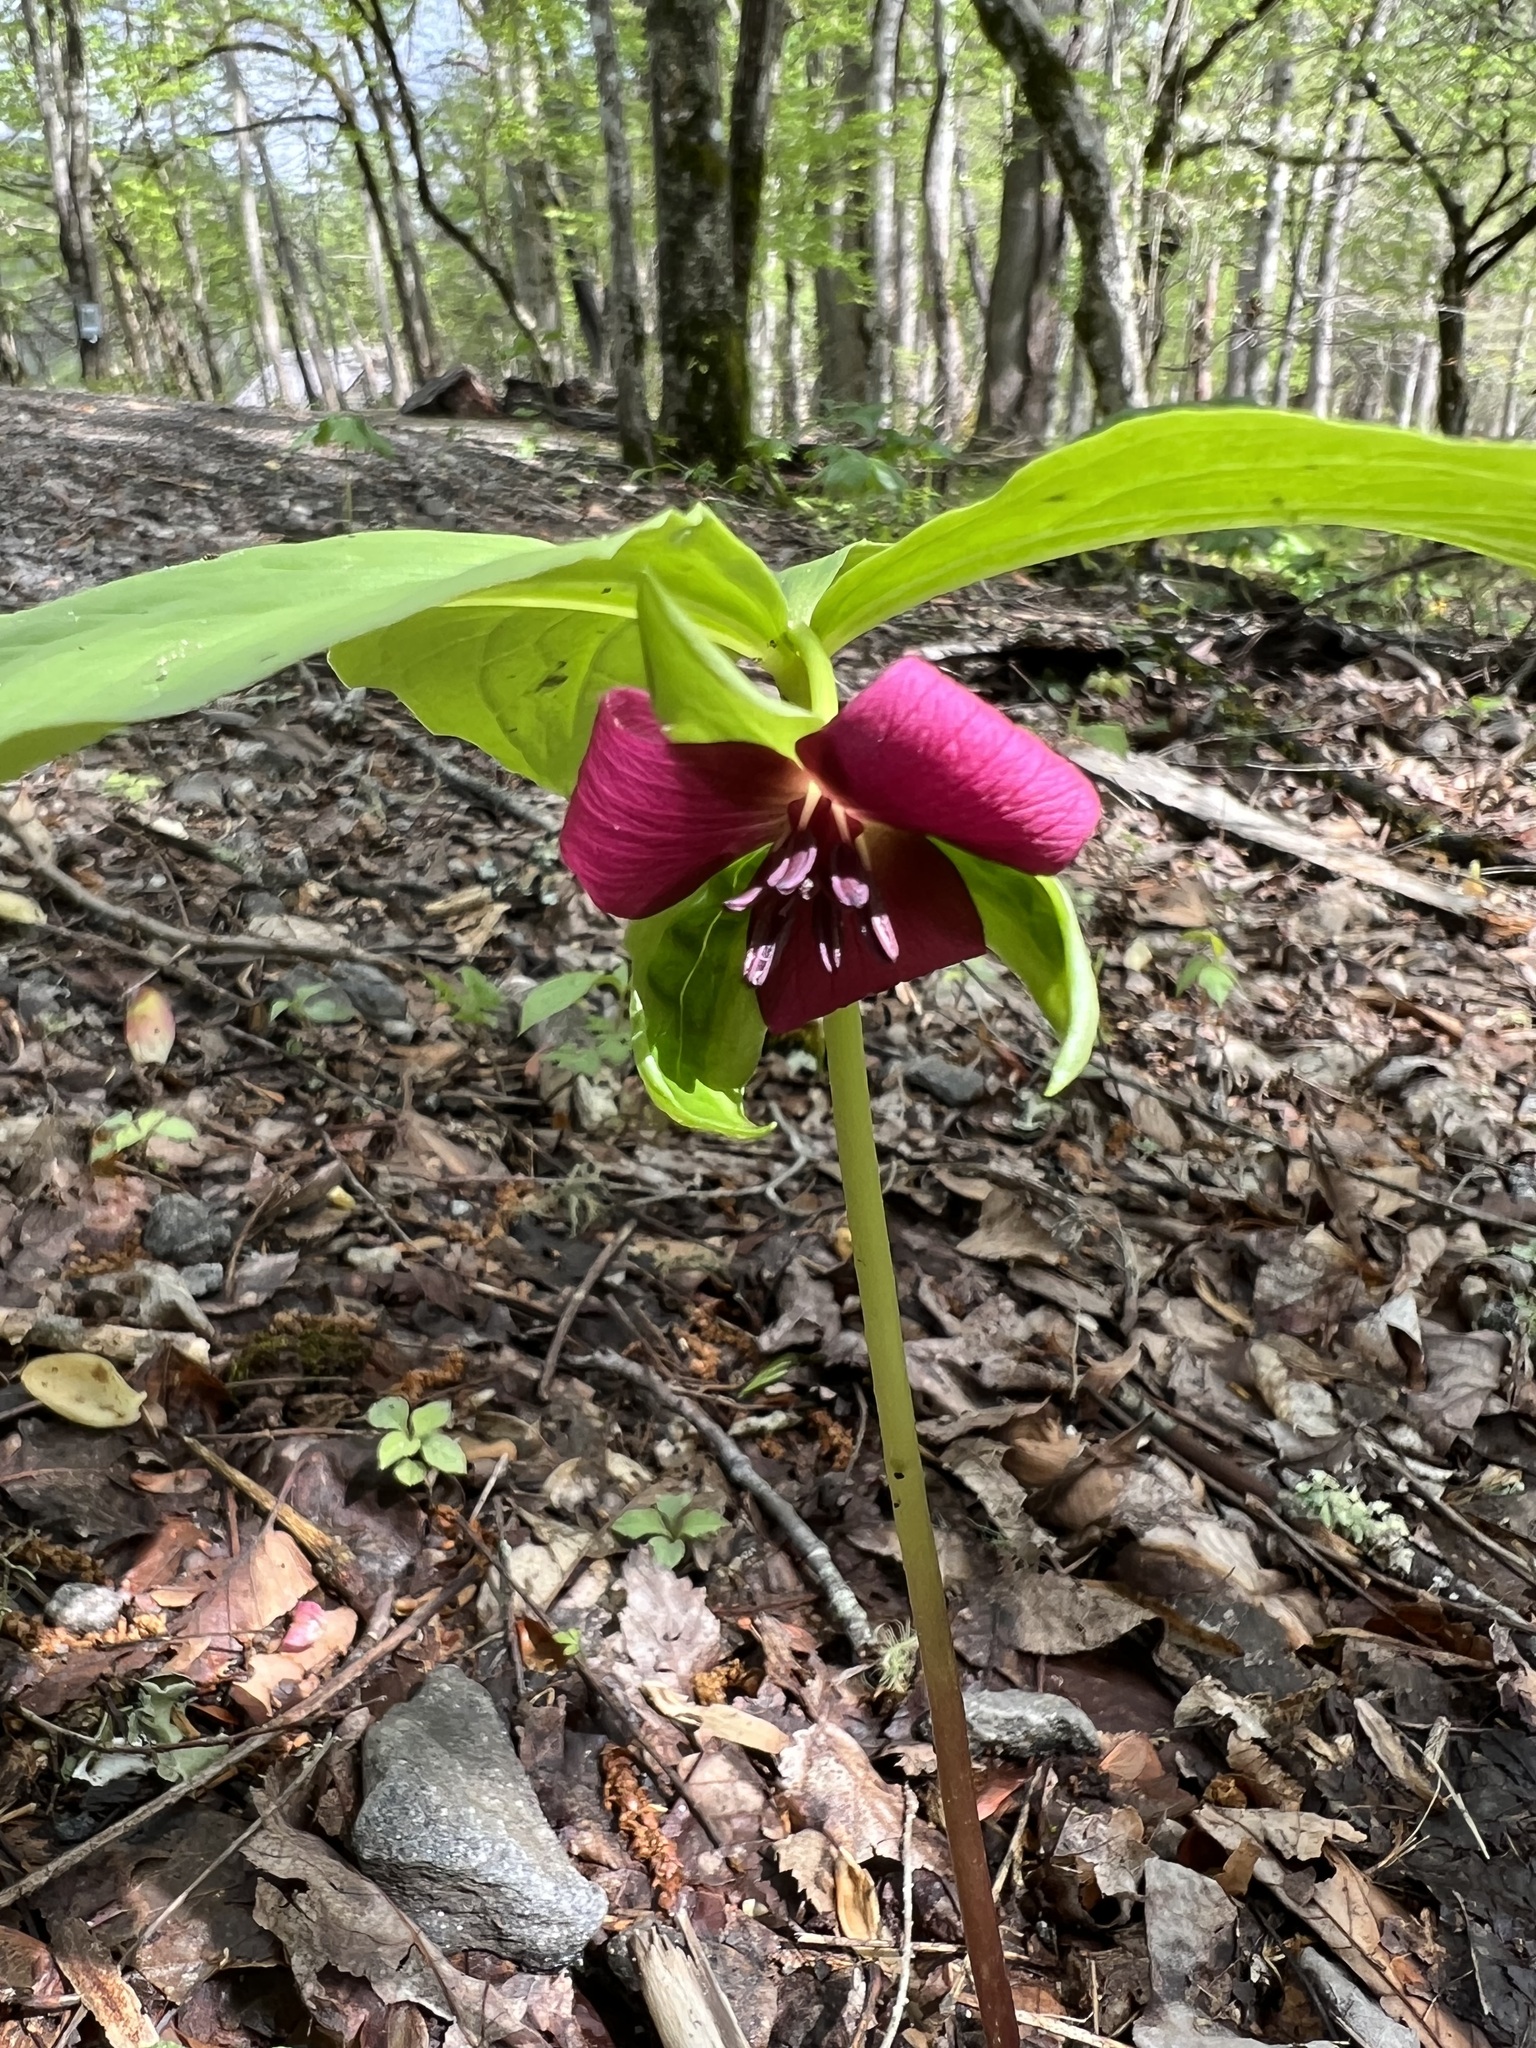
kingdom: Plantae
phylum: Tracheophyta
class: Liliopsida
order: Liliales
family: Melanthiaceae
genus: Trillium
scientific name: Trillium vaseyi
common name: Sweet trillium
